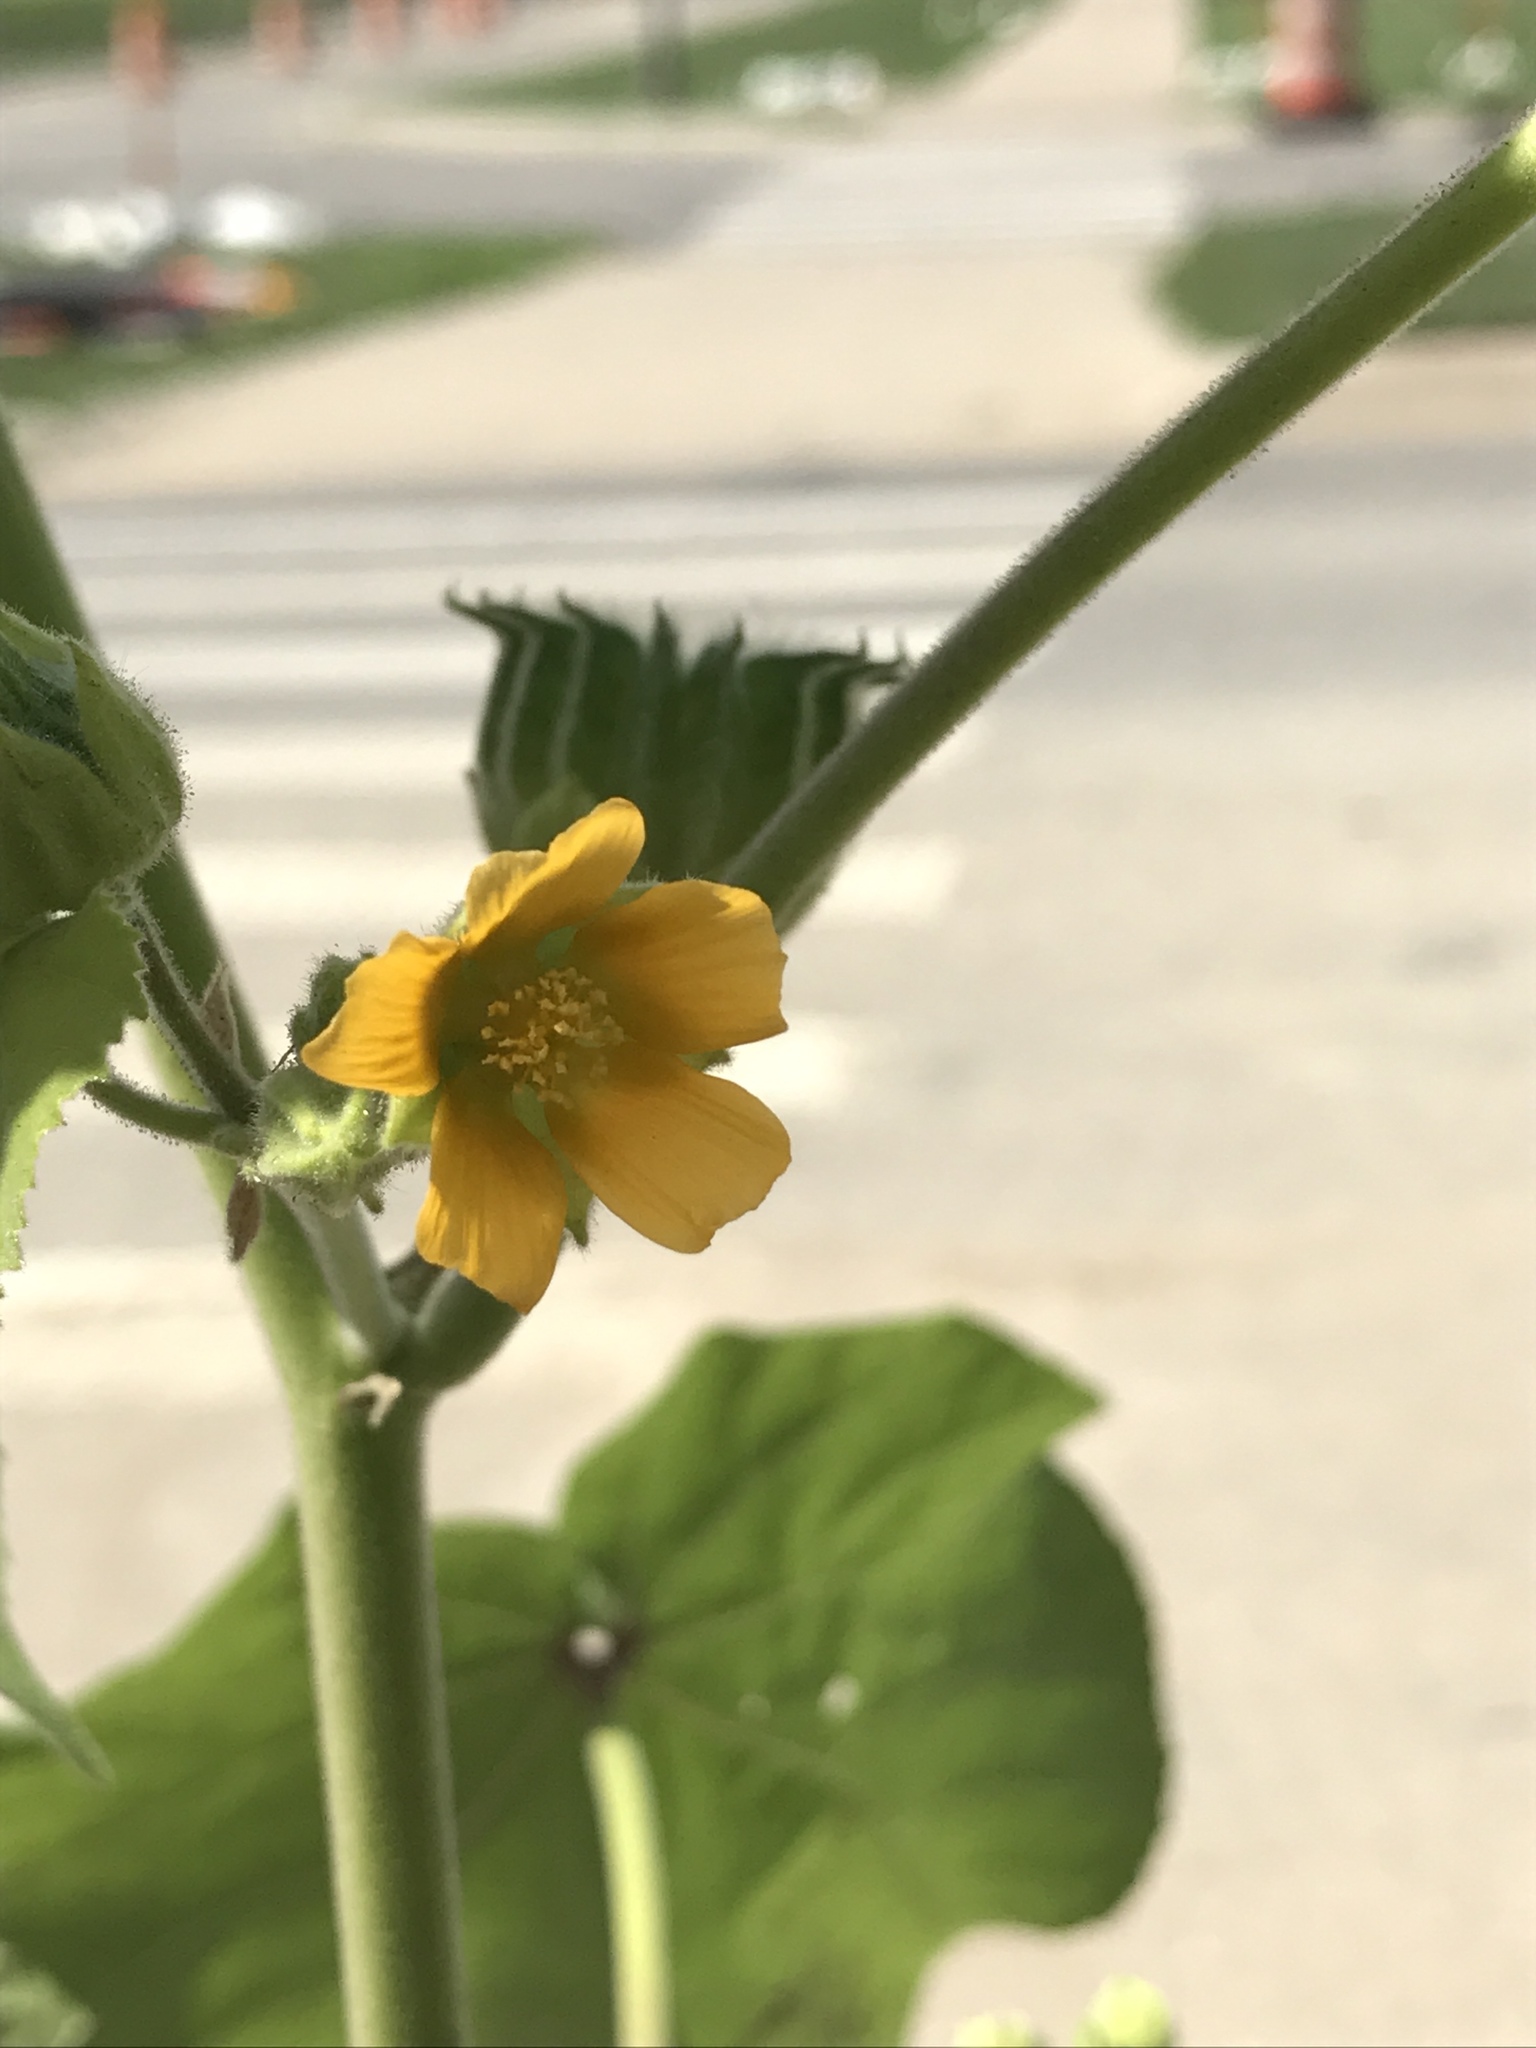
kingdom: Plantae
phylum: Tracheophyta
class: Magnoliopsida
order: Malvales
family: Malvaceae
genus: Abutilon
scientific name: Abutilon theophrasti
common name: Velvetleaf
